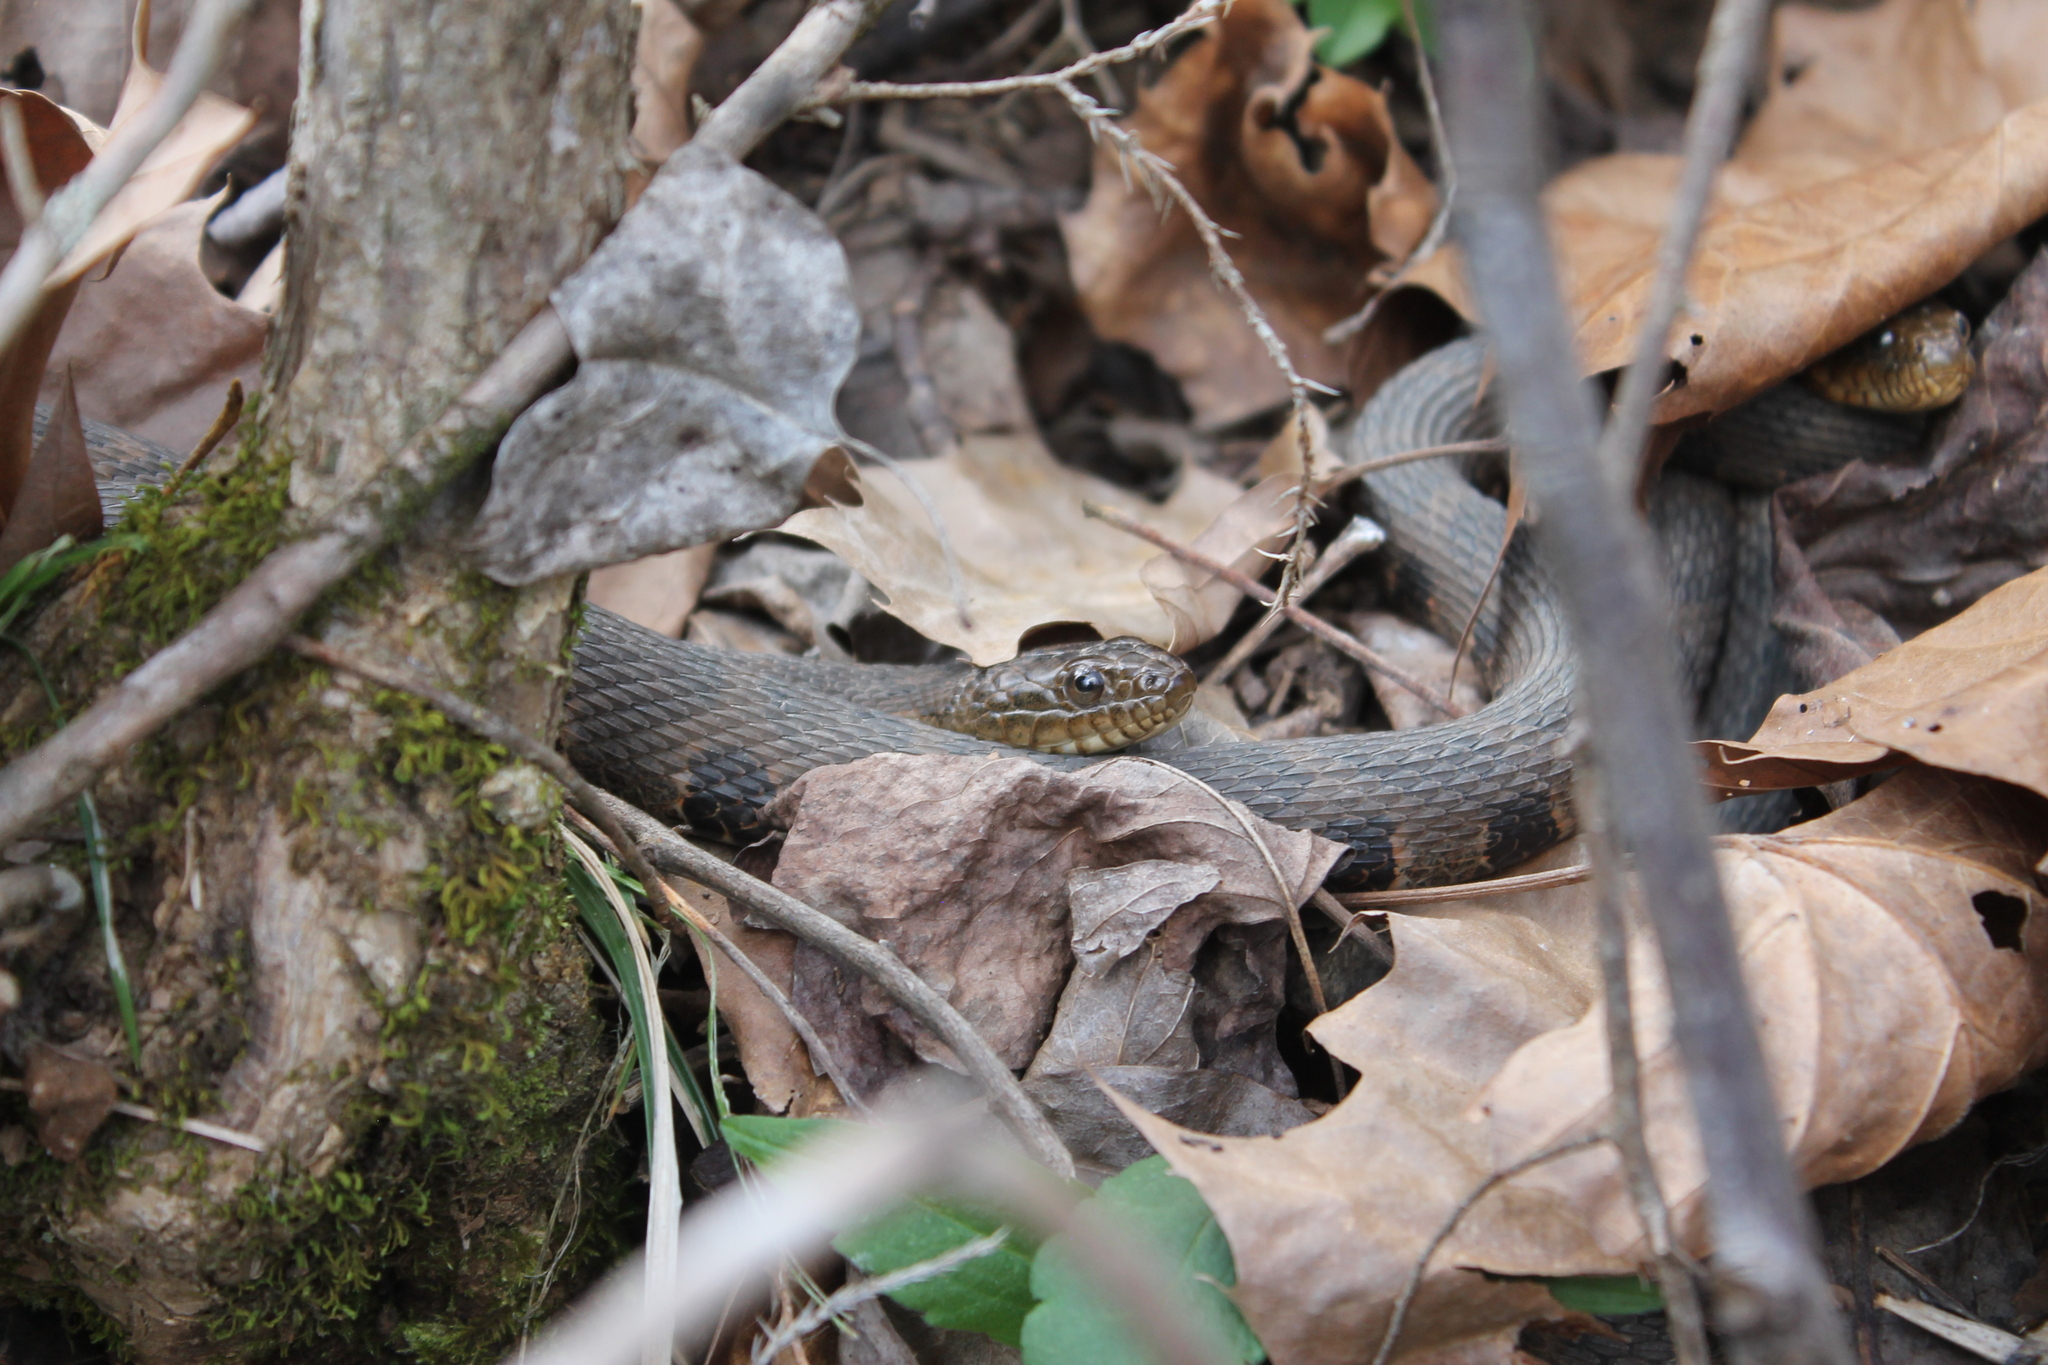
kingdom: Animalia
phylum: Chordata
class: Squamata
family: Colubridae
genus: Nerodia
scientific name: Nerodia sipedon
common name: Northern water snake
